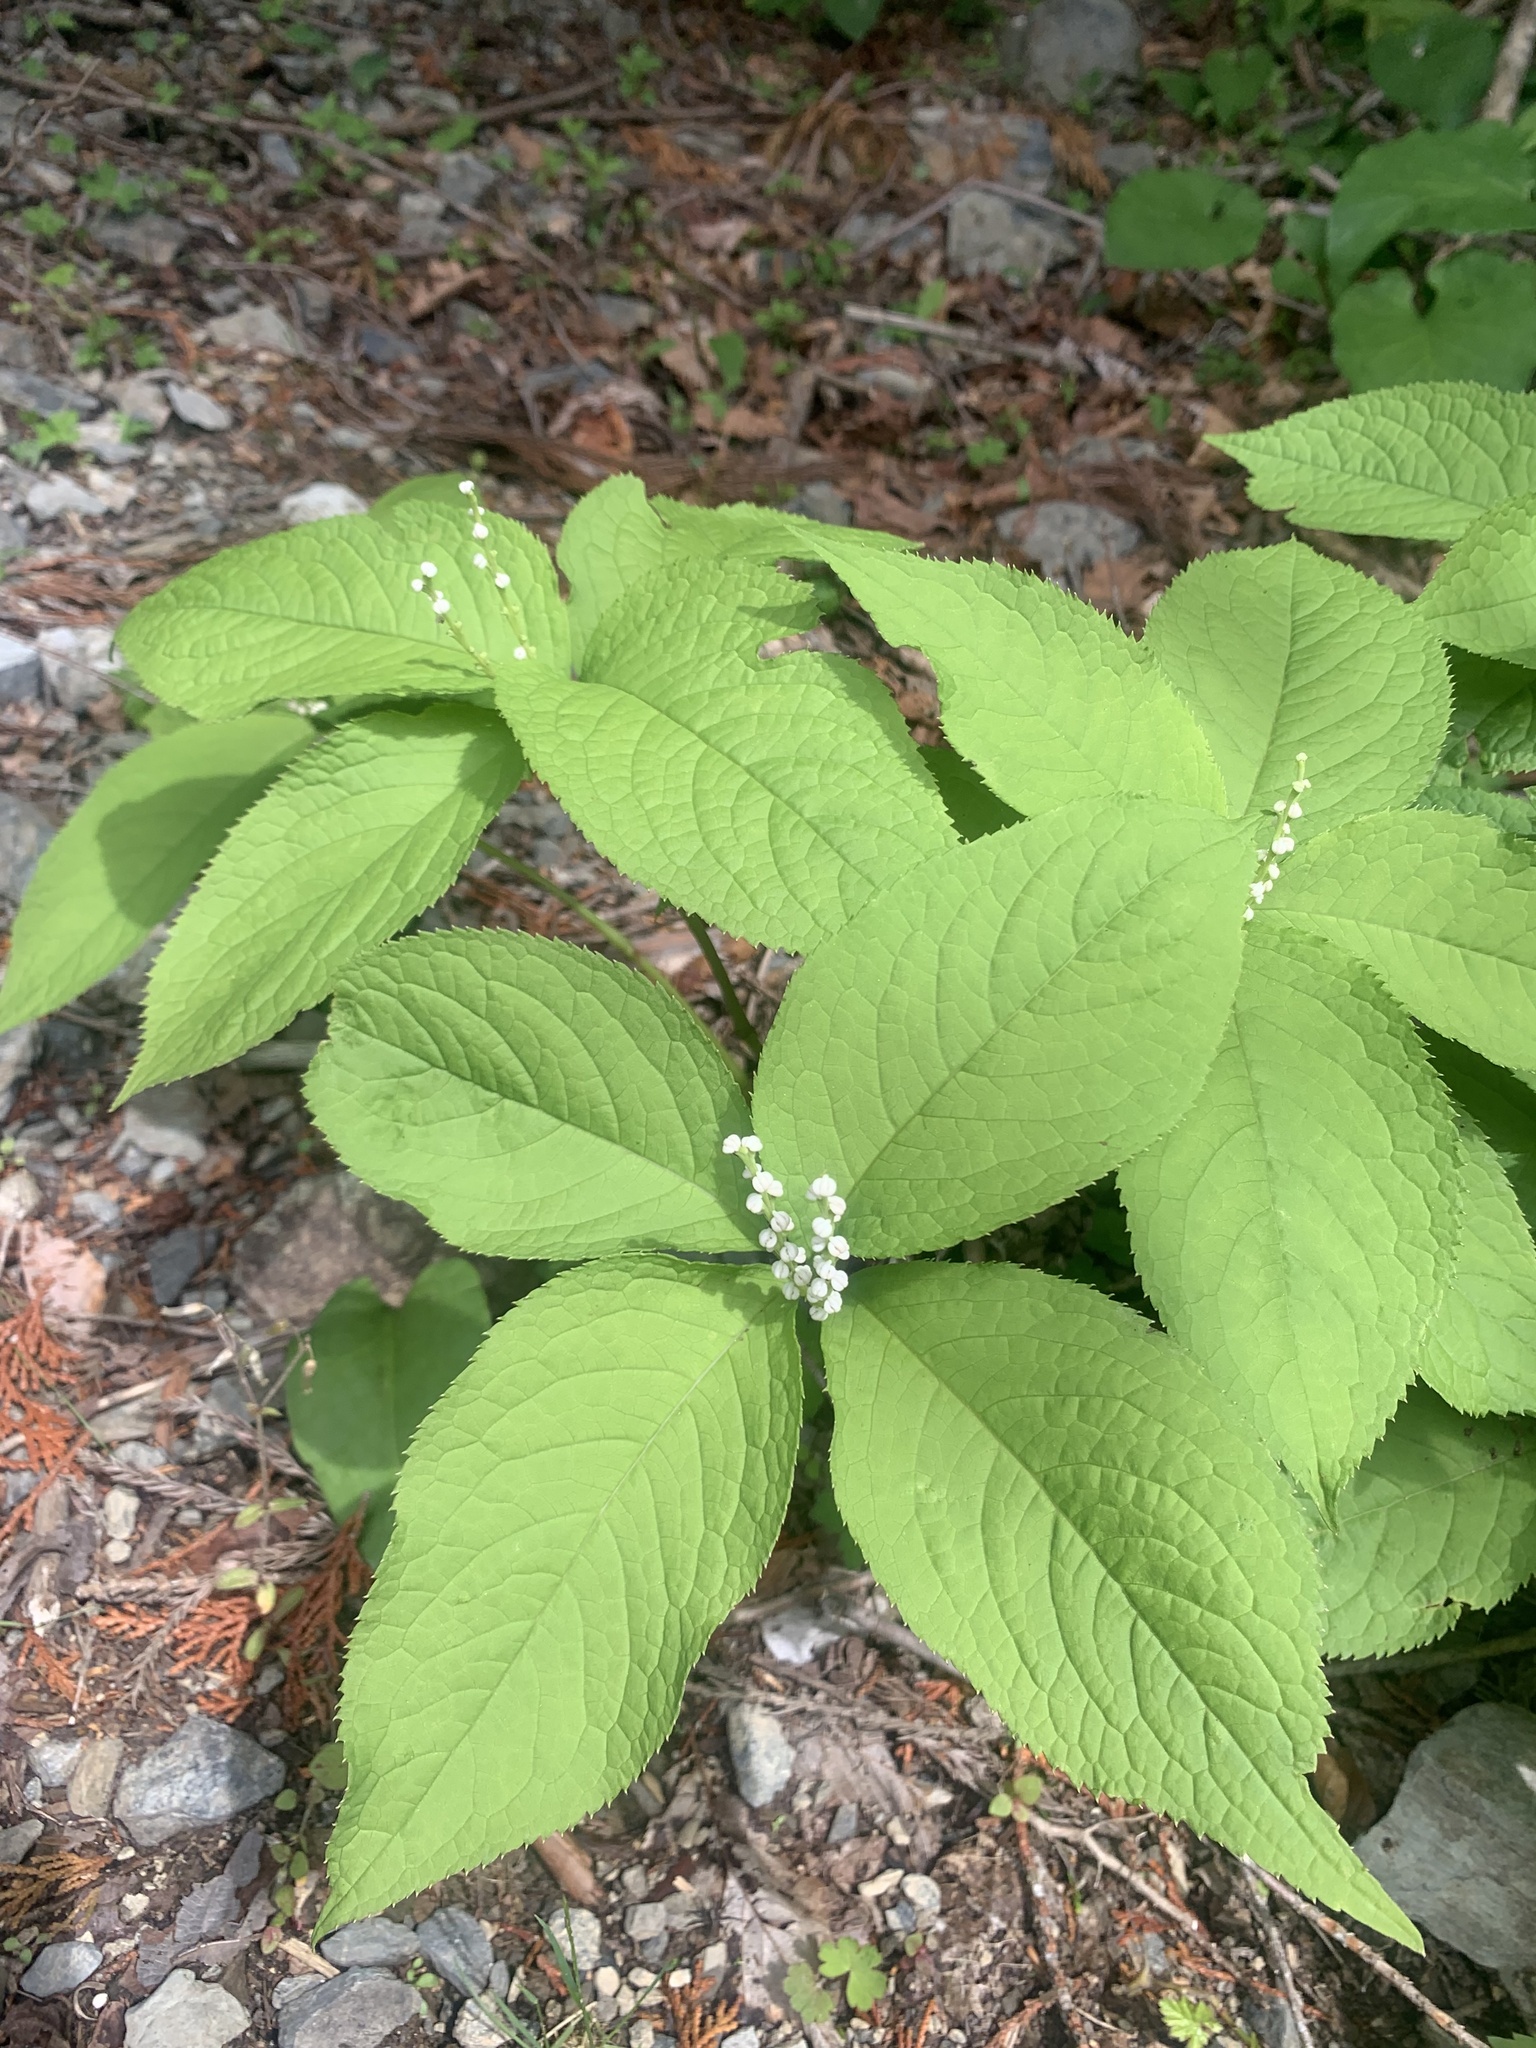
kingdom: Plantae
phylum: Tracheophyta
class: Magnoliopsida
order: Chloranthales
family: Chloranthaceae
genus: Chloranthus
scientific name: Chloranthus serratus
